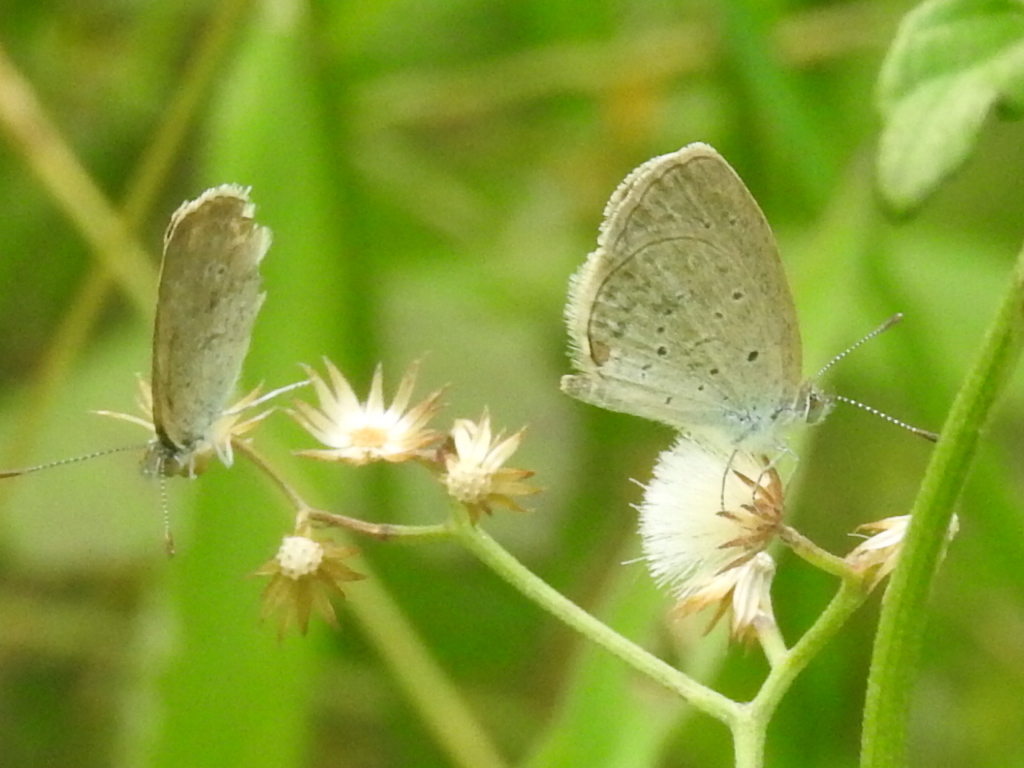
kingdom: Animalia
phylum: Arthropoda
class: Insecta
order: Lepidoptera
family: Lycaenidae
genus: Zizina
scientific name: Zizina otis
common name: Lesser grass blue
